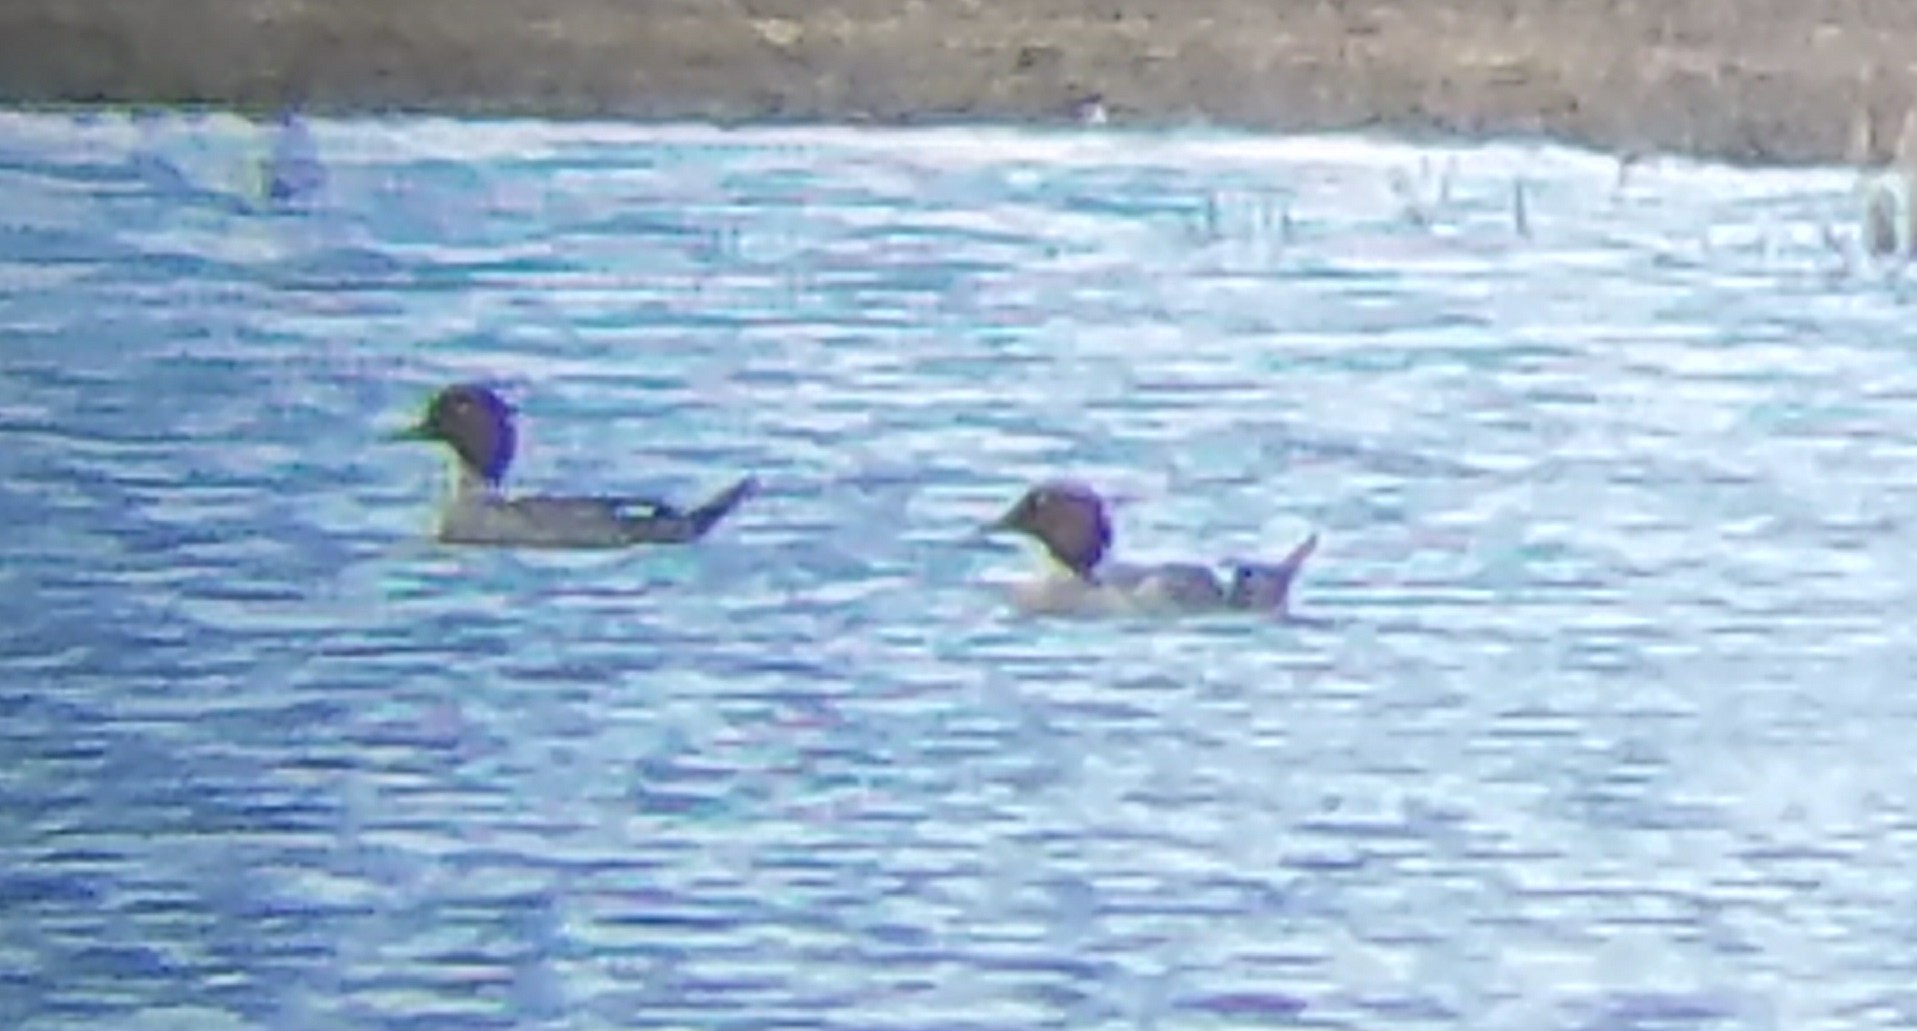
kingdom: Animalia
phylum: Chordata
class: Aves
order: Anseriformes
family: Anatidae
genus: Bucephala
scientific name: Bucephala clangula
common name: Common goldeneye
